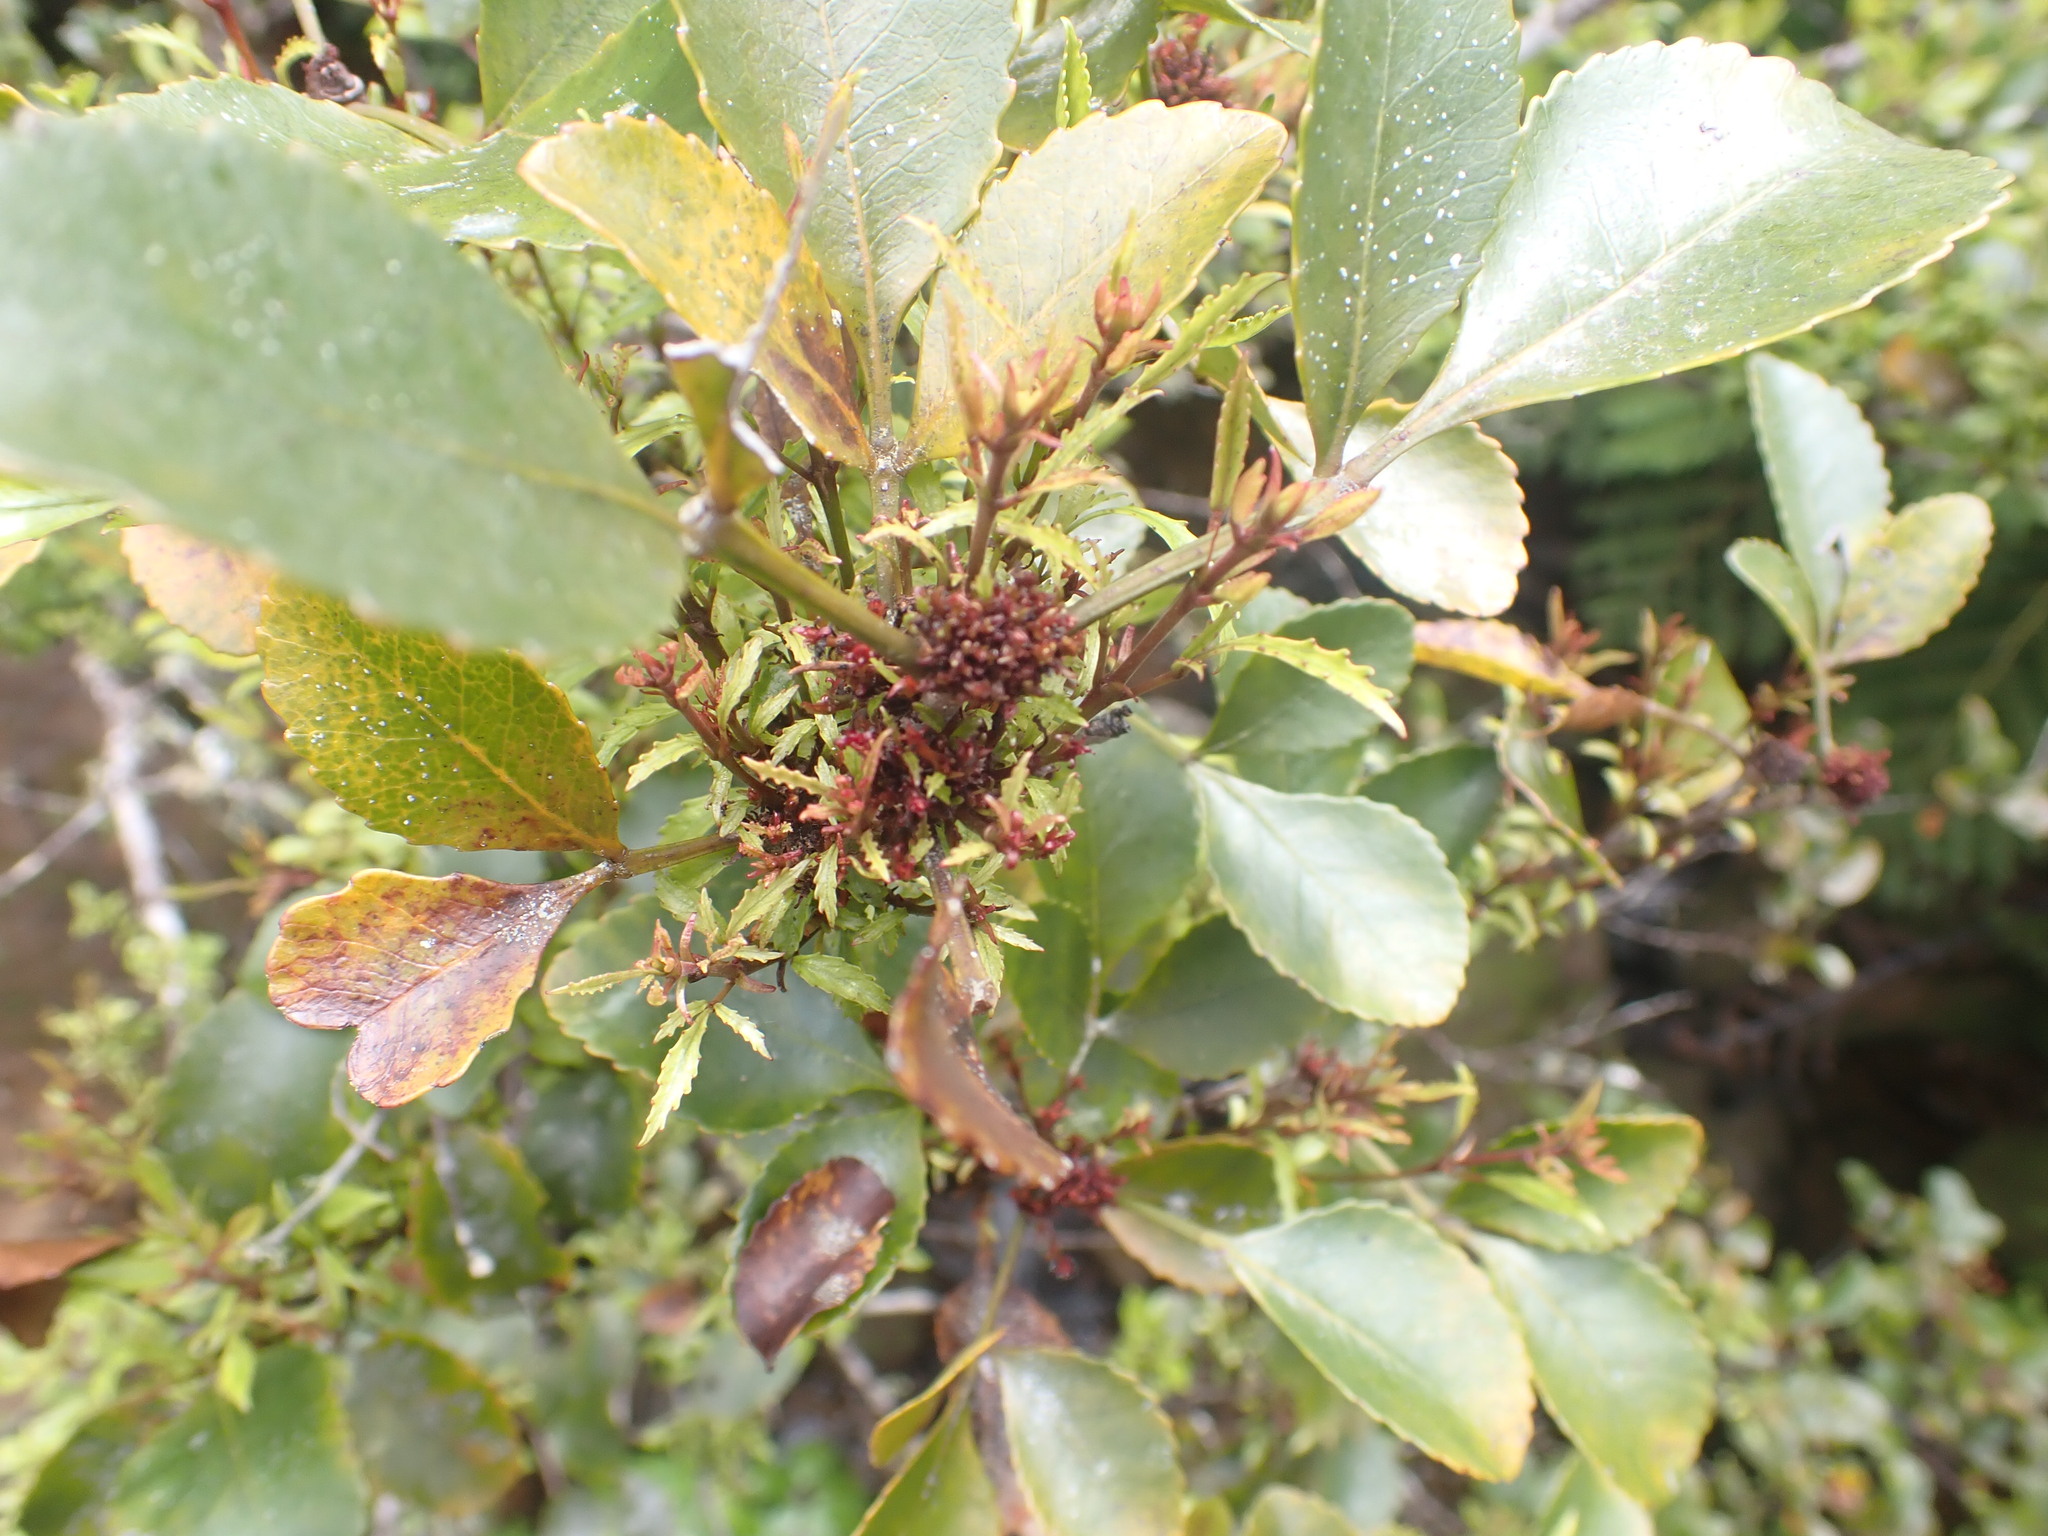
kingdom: Plantae
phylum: Tracheophyta
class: Magnoliopsida
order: Oxalidales
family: Cunoniaceae
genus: Pterophylla
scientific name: Pterophylla sylvicola
